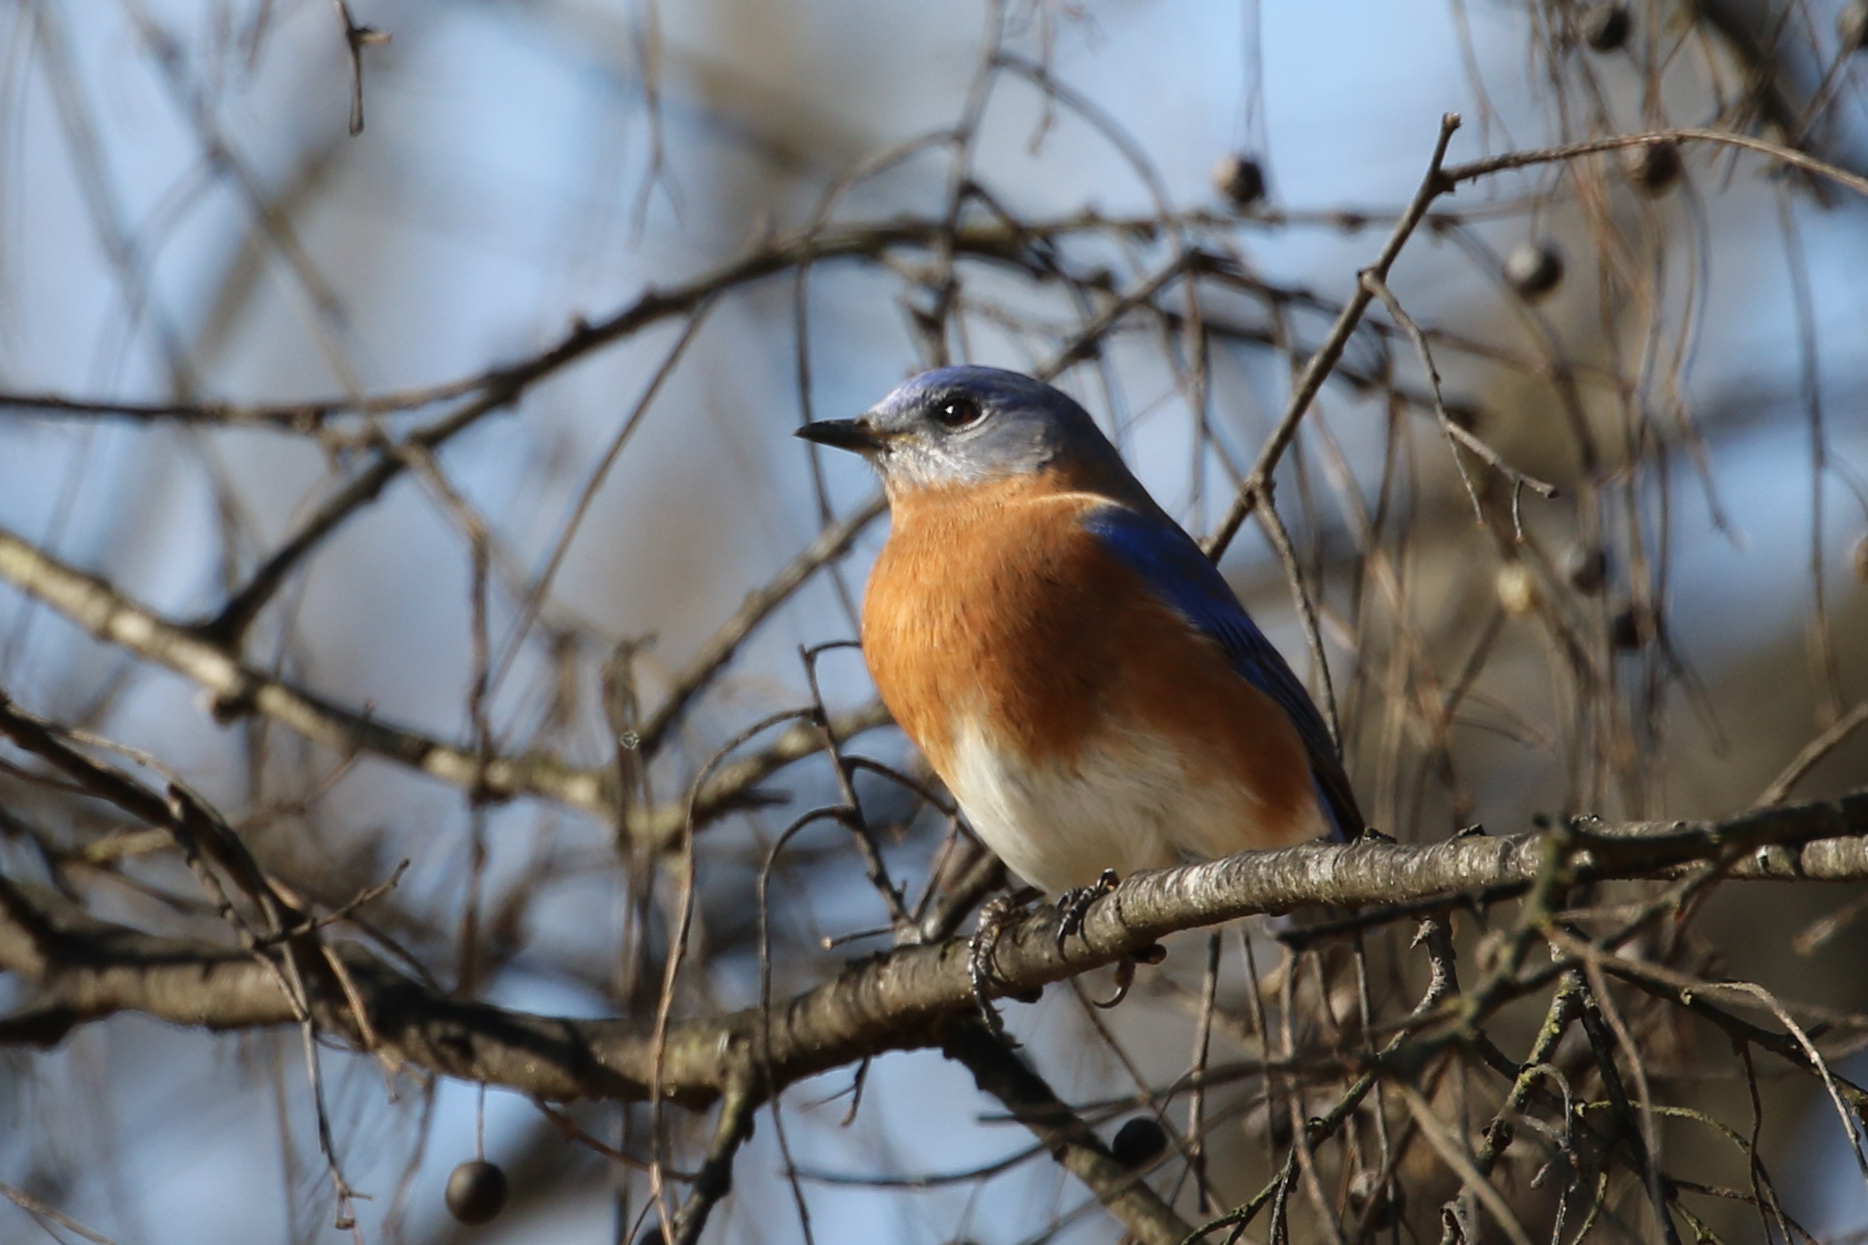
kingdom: Animalia
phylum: Chordata
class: Aves
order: Passeriformes
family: Turdidae
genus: Sialia
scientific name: Sialia sialis
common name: Eastern bluebird
